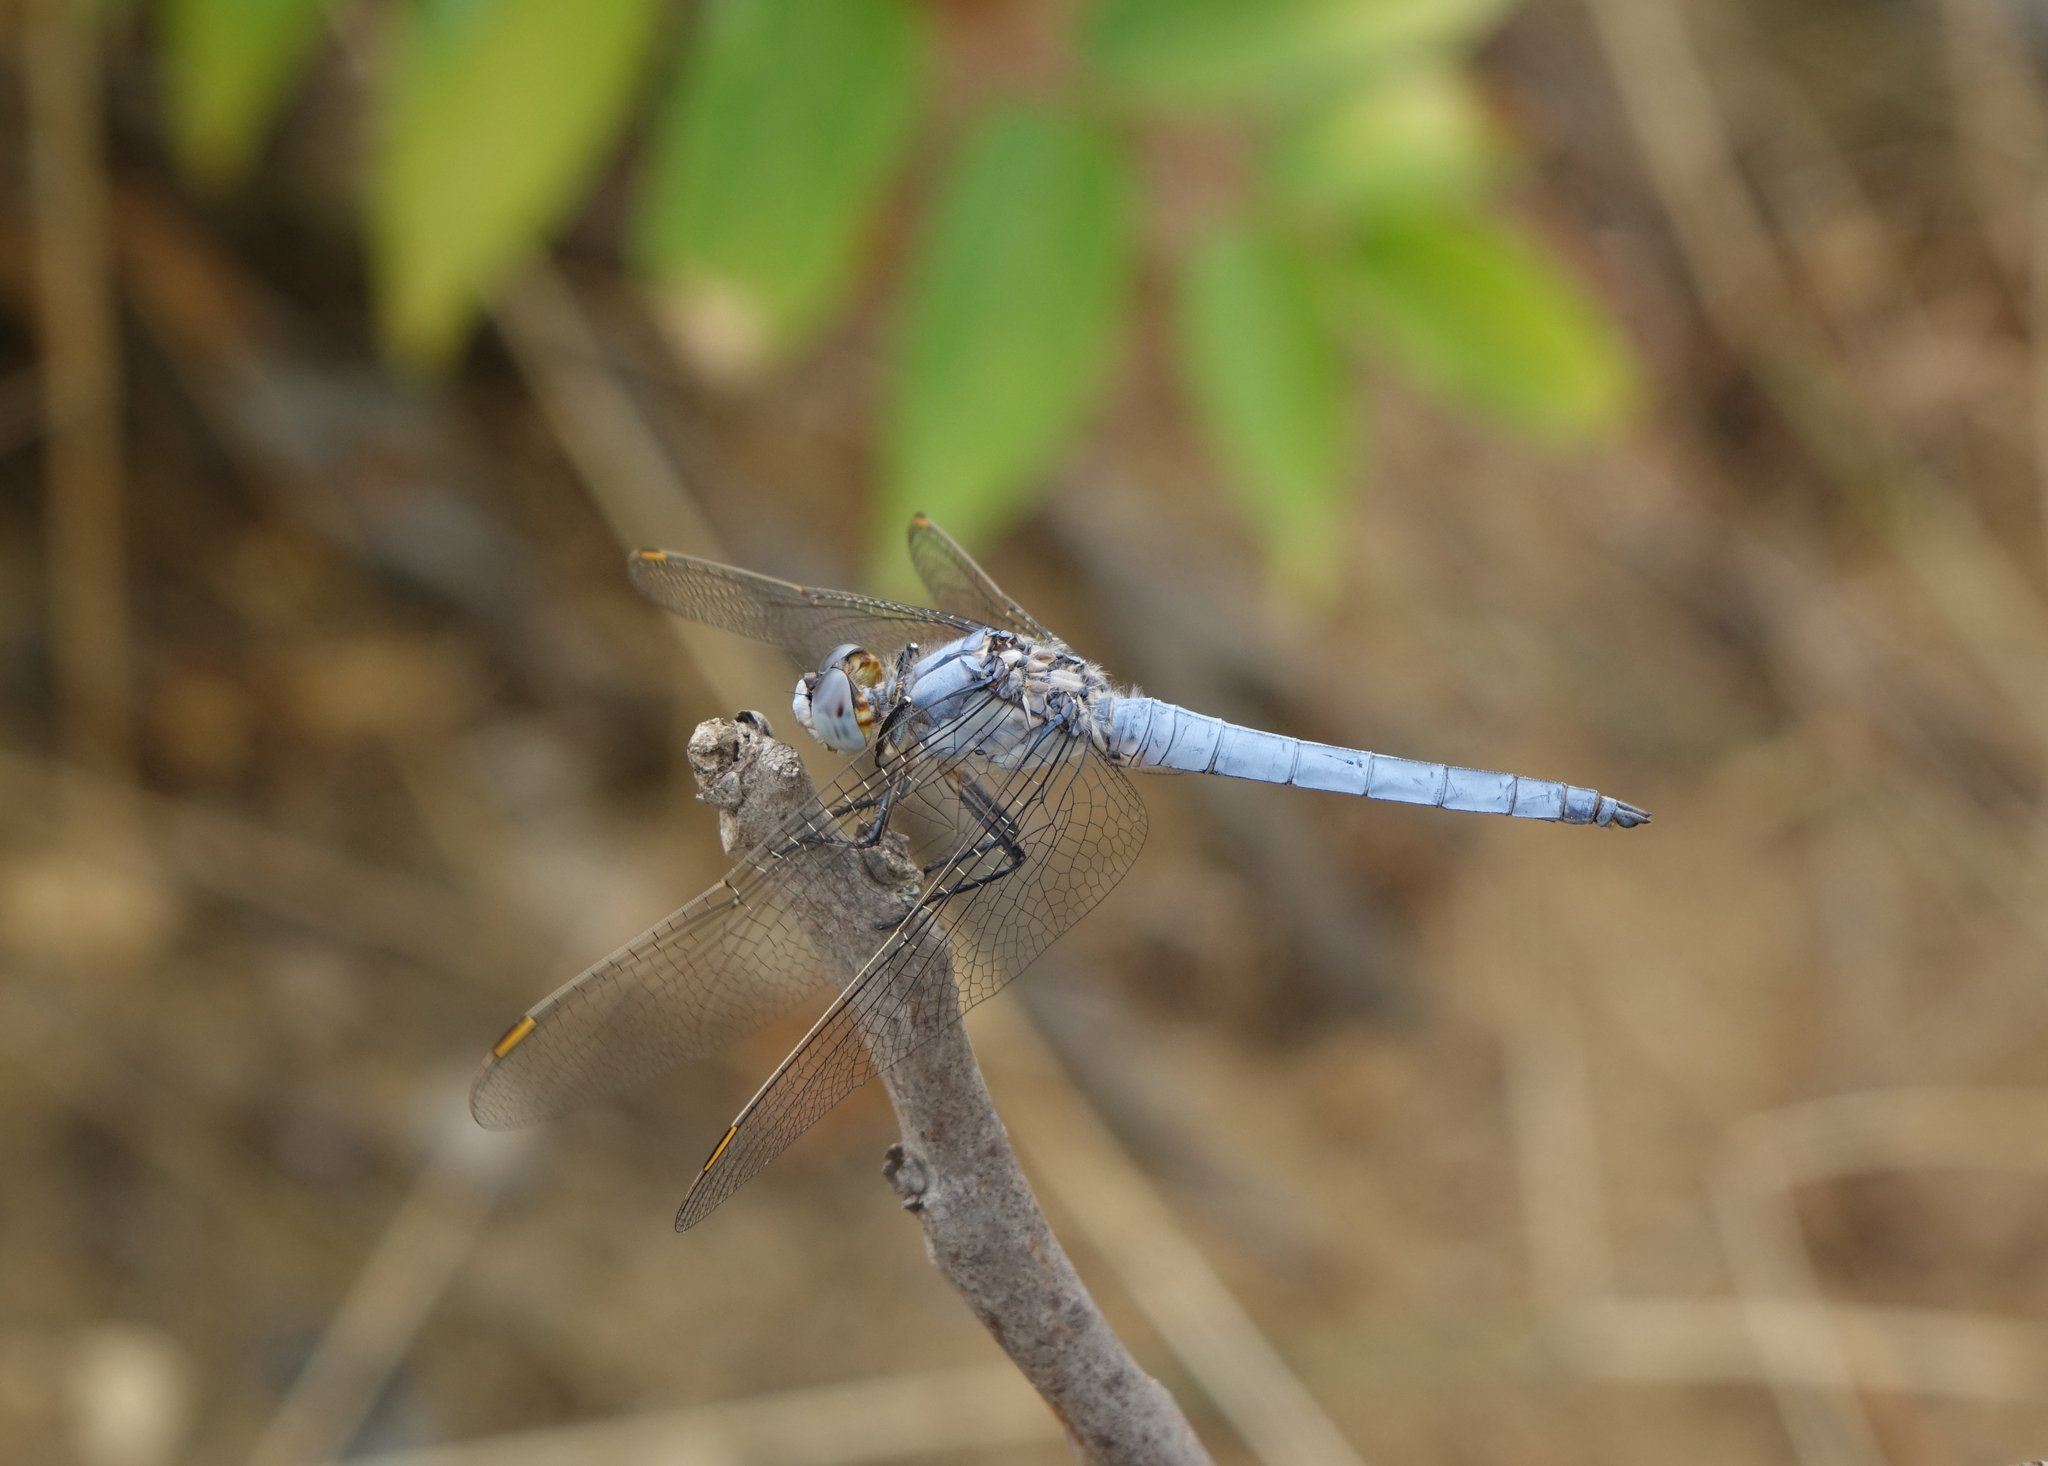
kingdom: Animalia
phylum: Arthropoda
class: Insecta
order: Odonata
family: Libellulidae
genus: Orthetrum
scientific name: Orthetrum brunneum
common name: Southern skimmer
